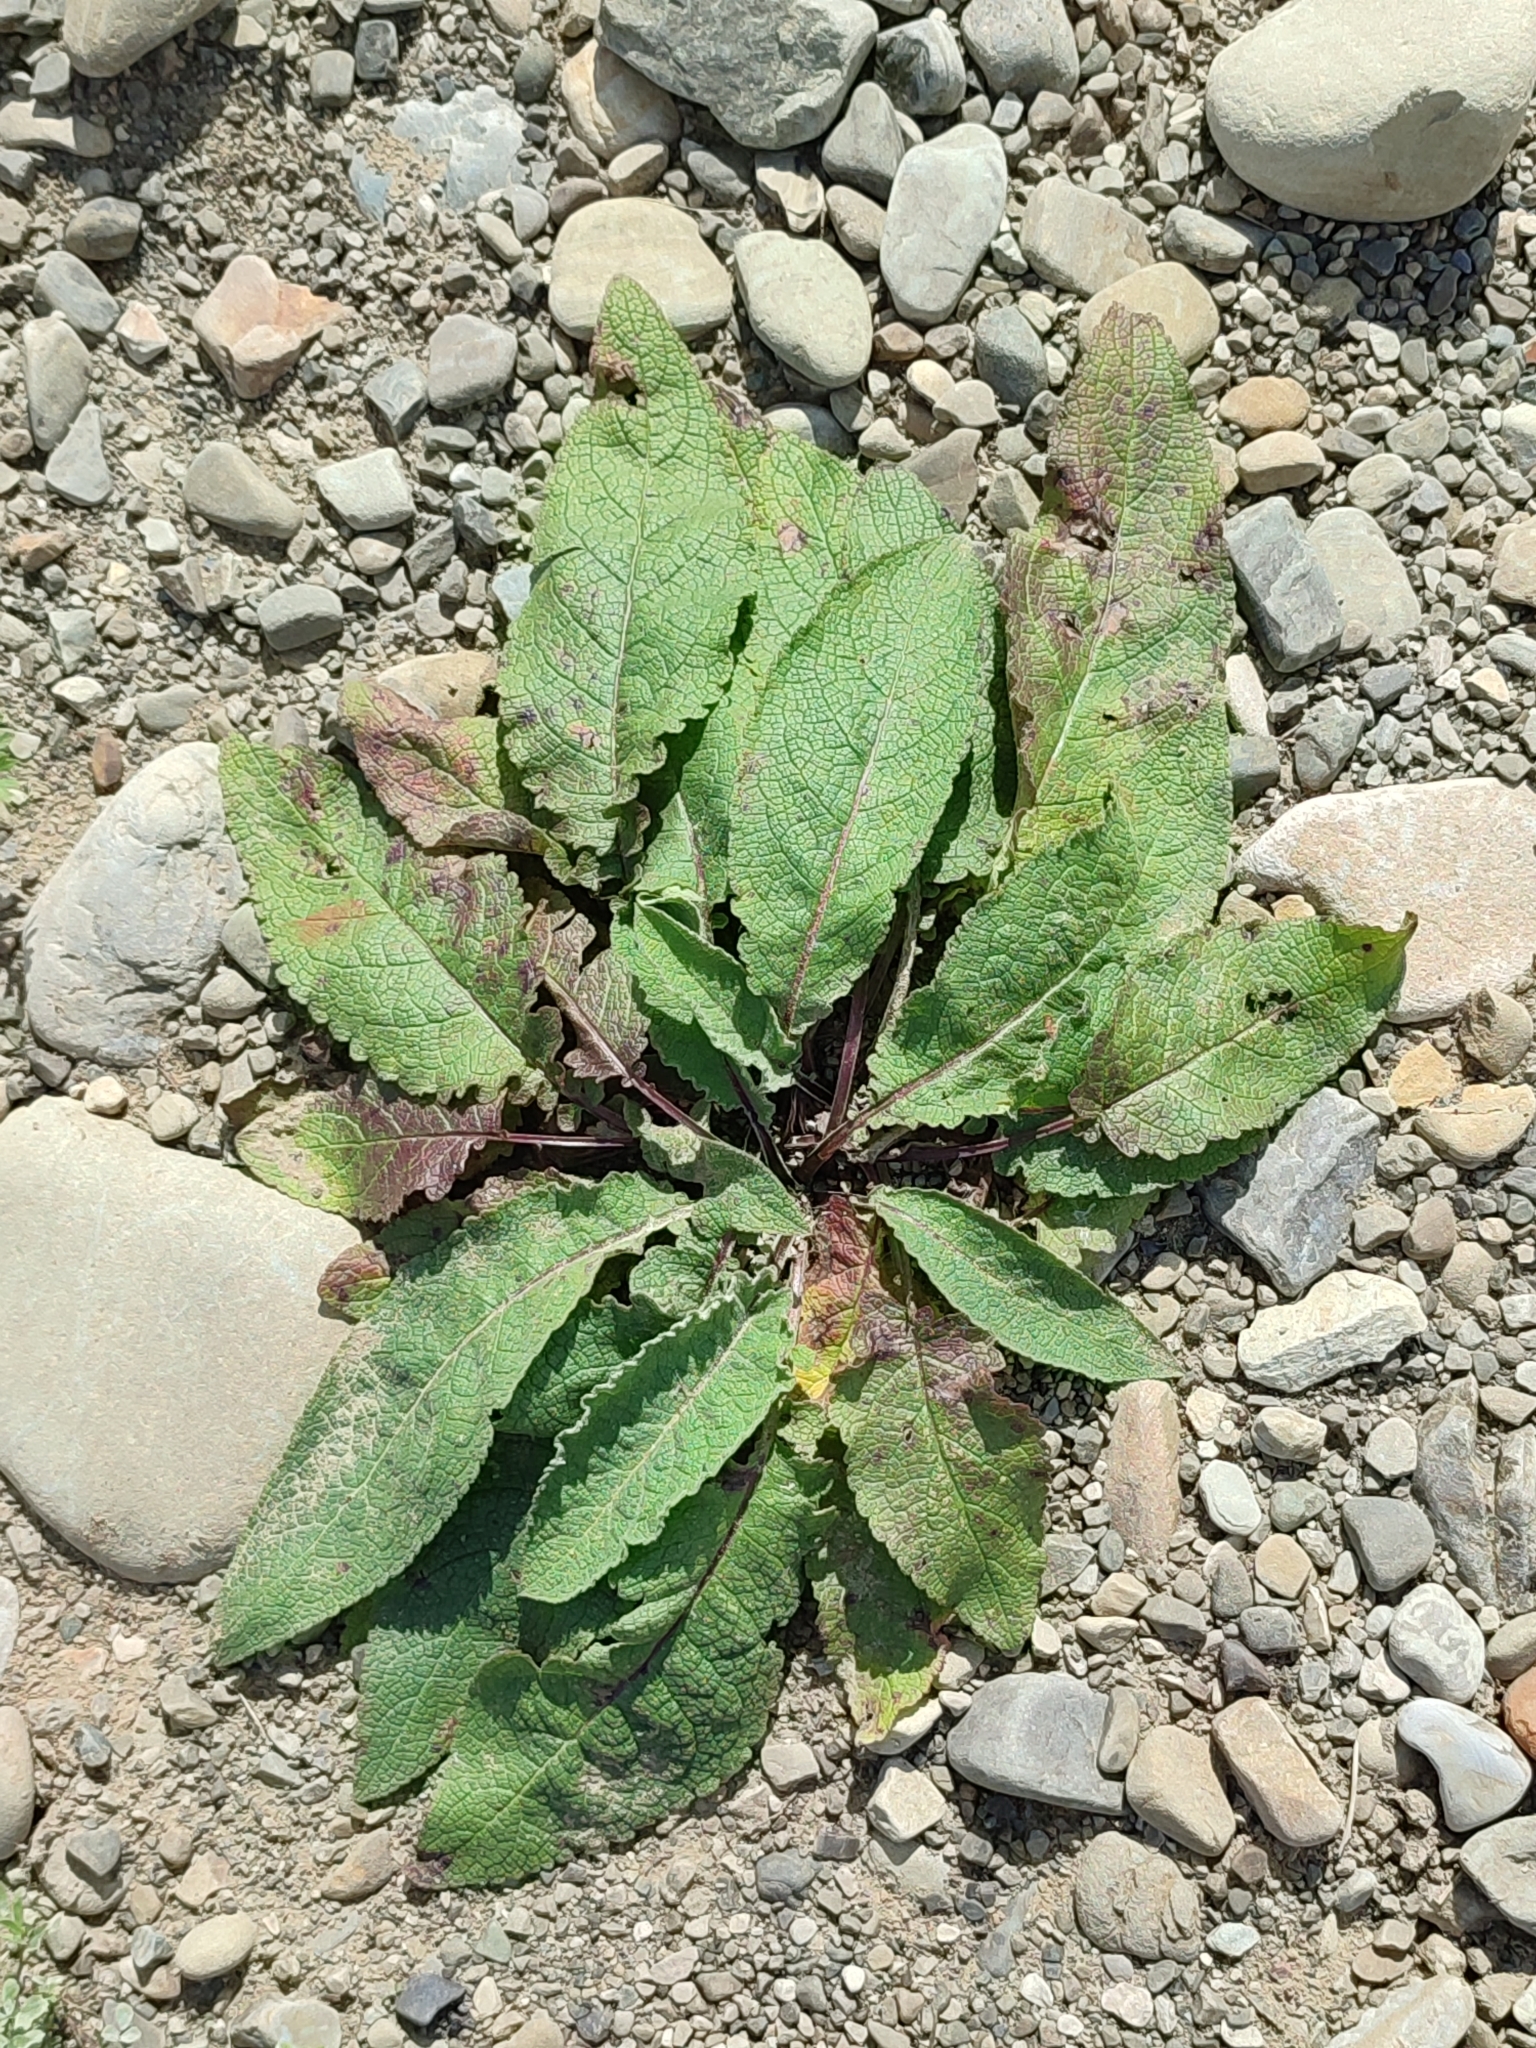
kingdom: Plantae
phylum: Tracheophyta
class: Magnoliopsida
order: Lamiales
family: Scrophulariaceae
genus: Verbascum
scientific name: Verbascum nigrum
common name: Dark mullein
